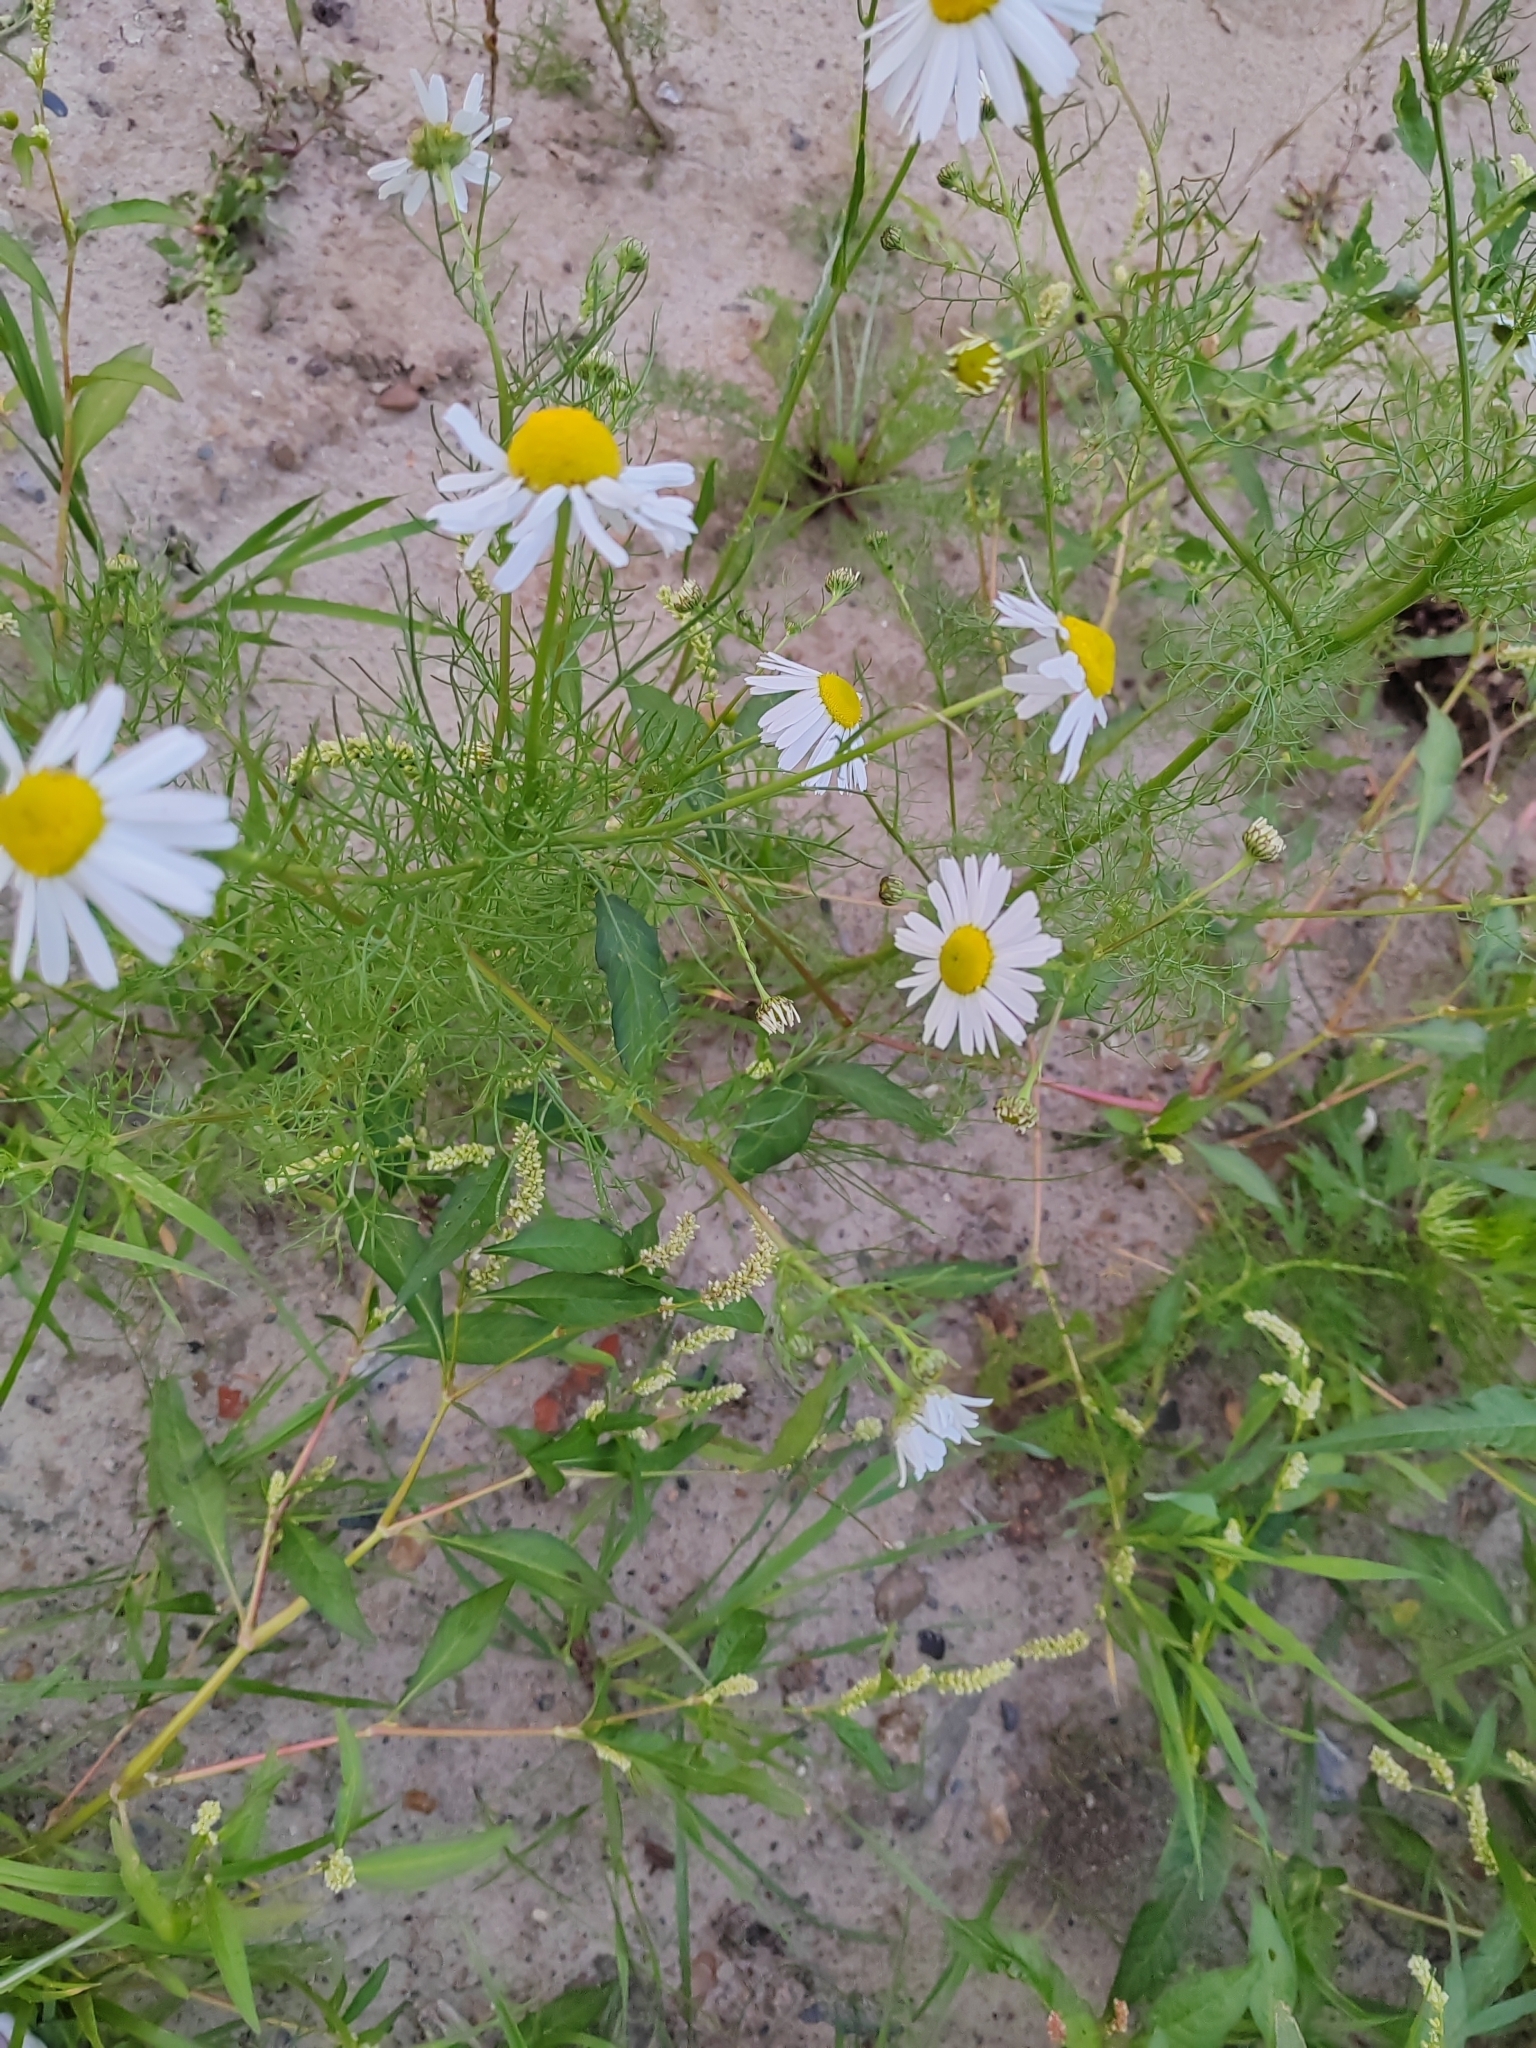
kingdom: Plantae
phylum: Tracheophyta
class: Magnoliopsida
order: Asterales
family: Asteraceae
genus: Tripleurospermum
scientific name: Tripleurospermum inodorum
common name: Scentless mayweed
